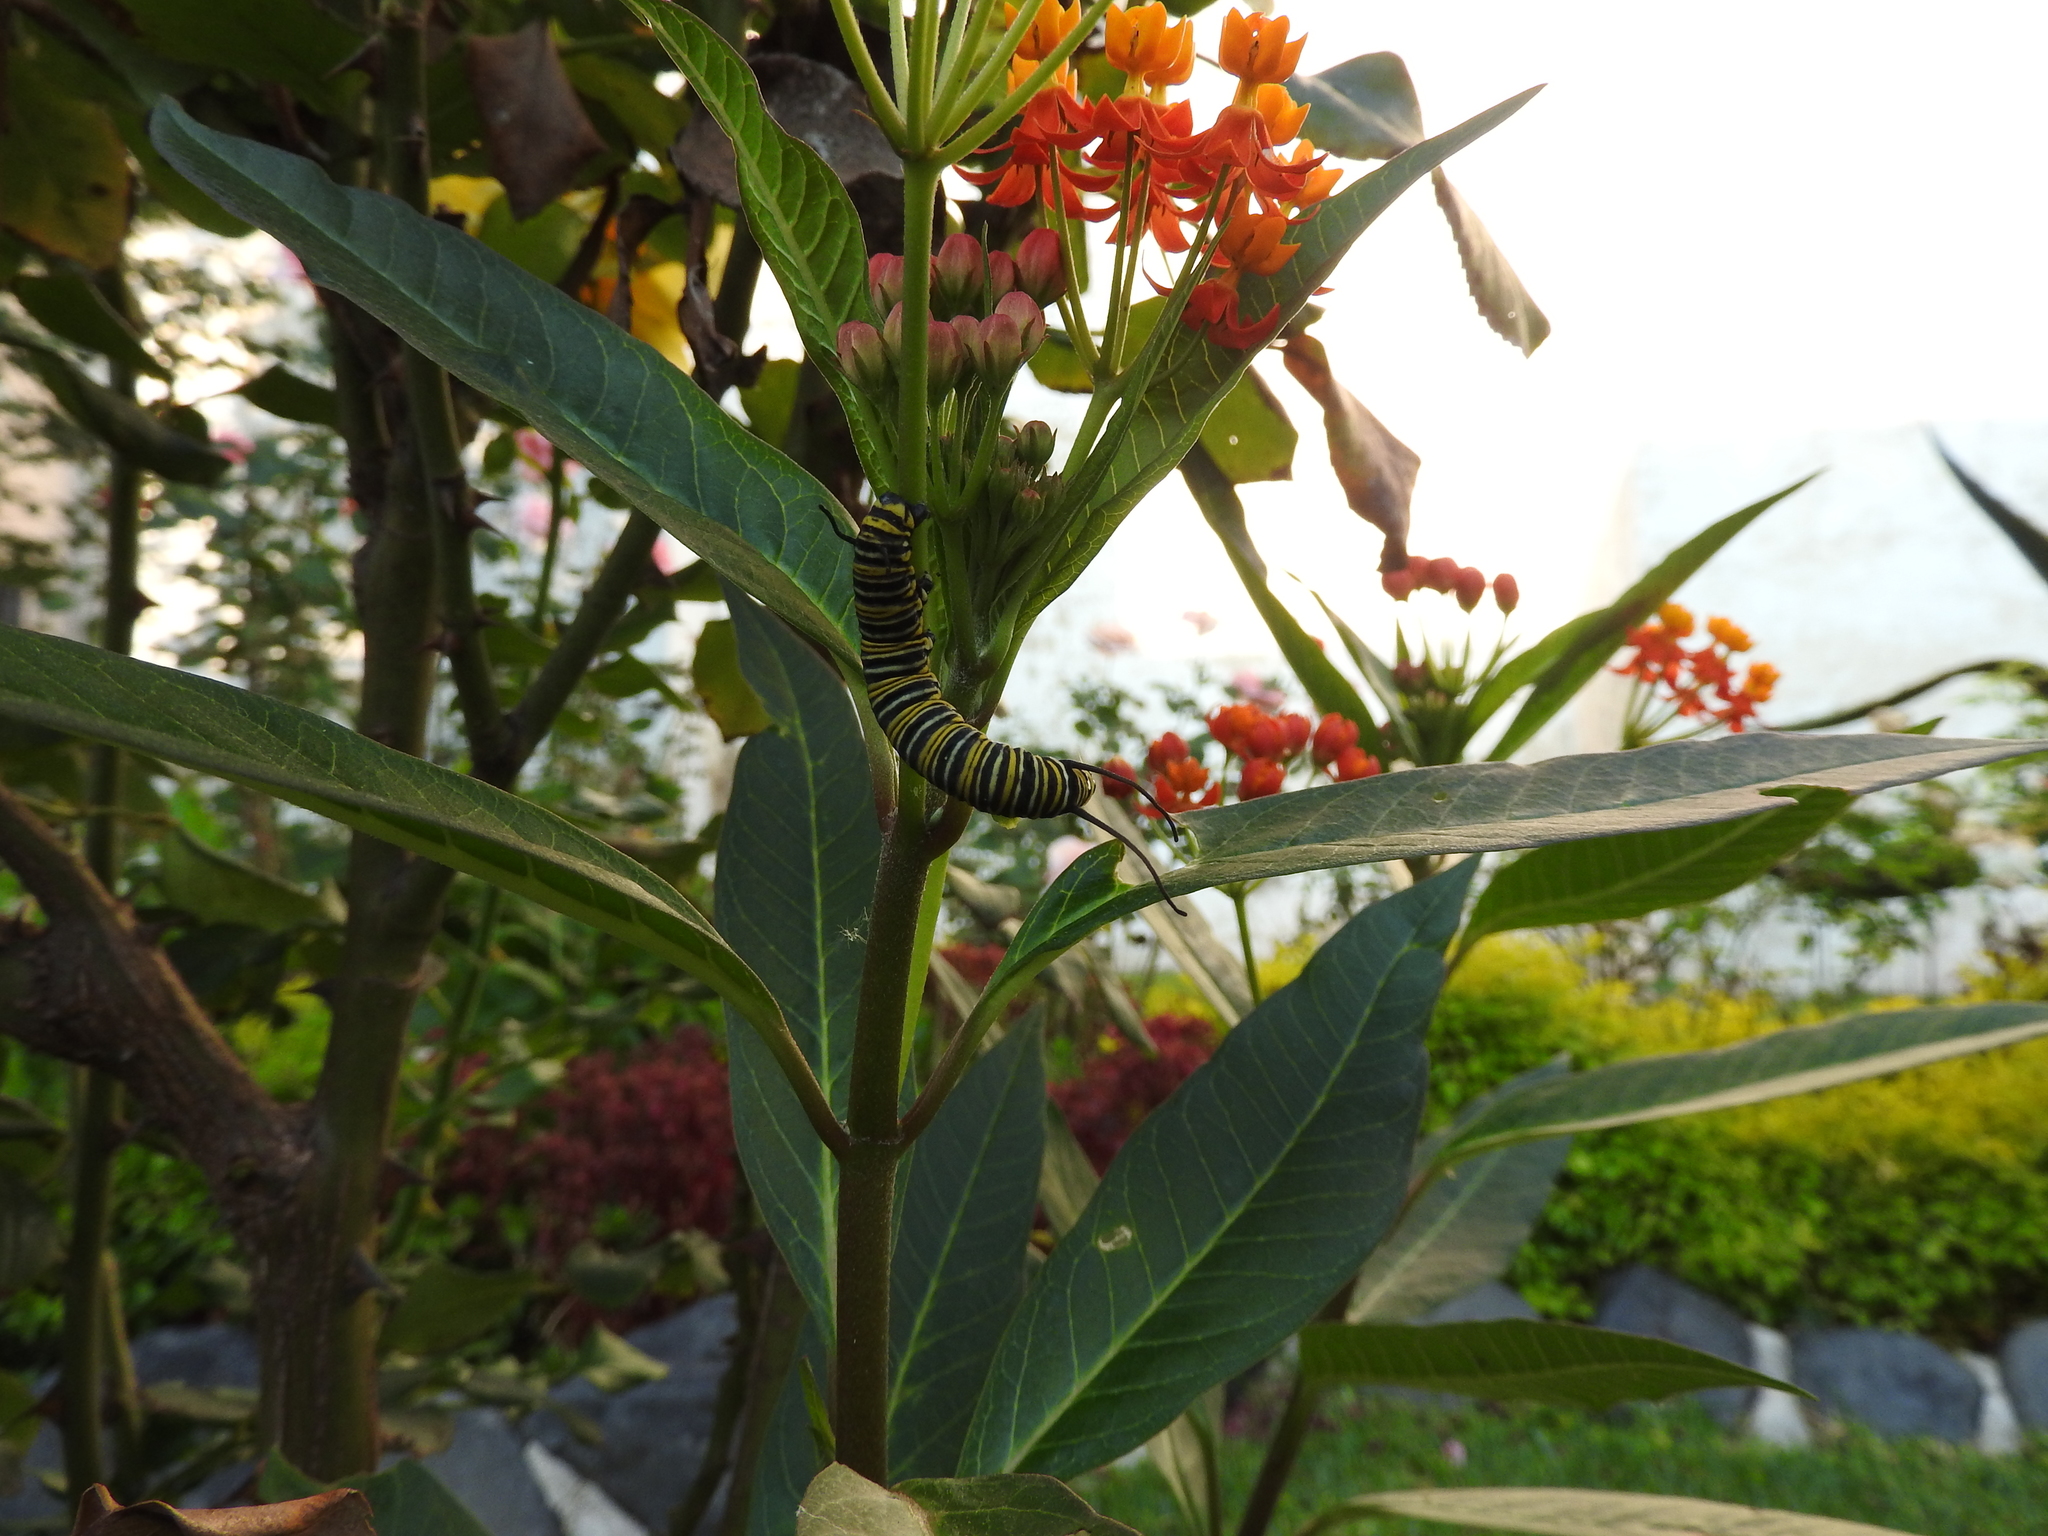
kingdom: Animalia
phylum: Arthropoda
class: Insecta
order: Lepidoptera
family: Nymphalidae
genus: Danaus
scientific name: Danaus plexippus
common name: Monarch
